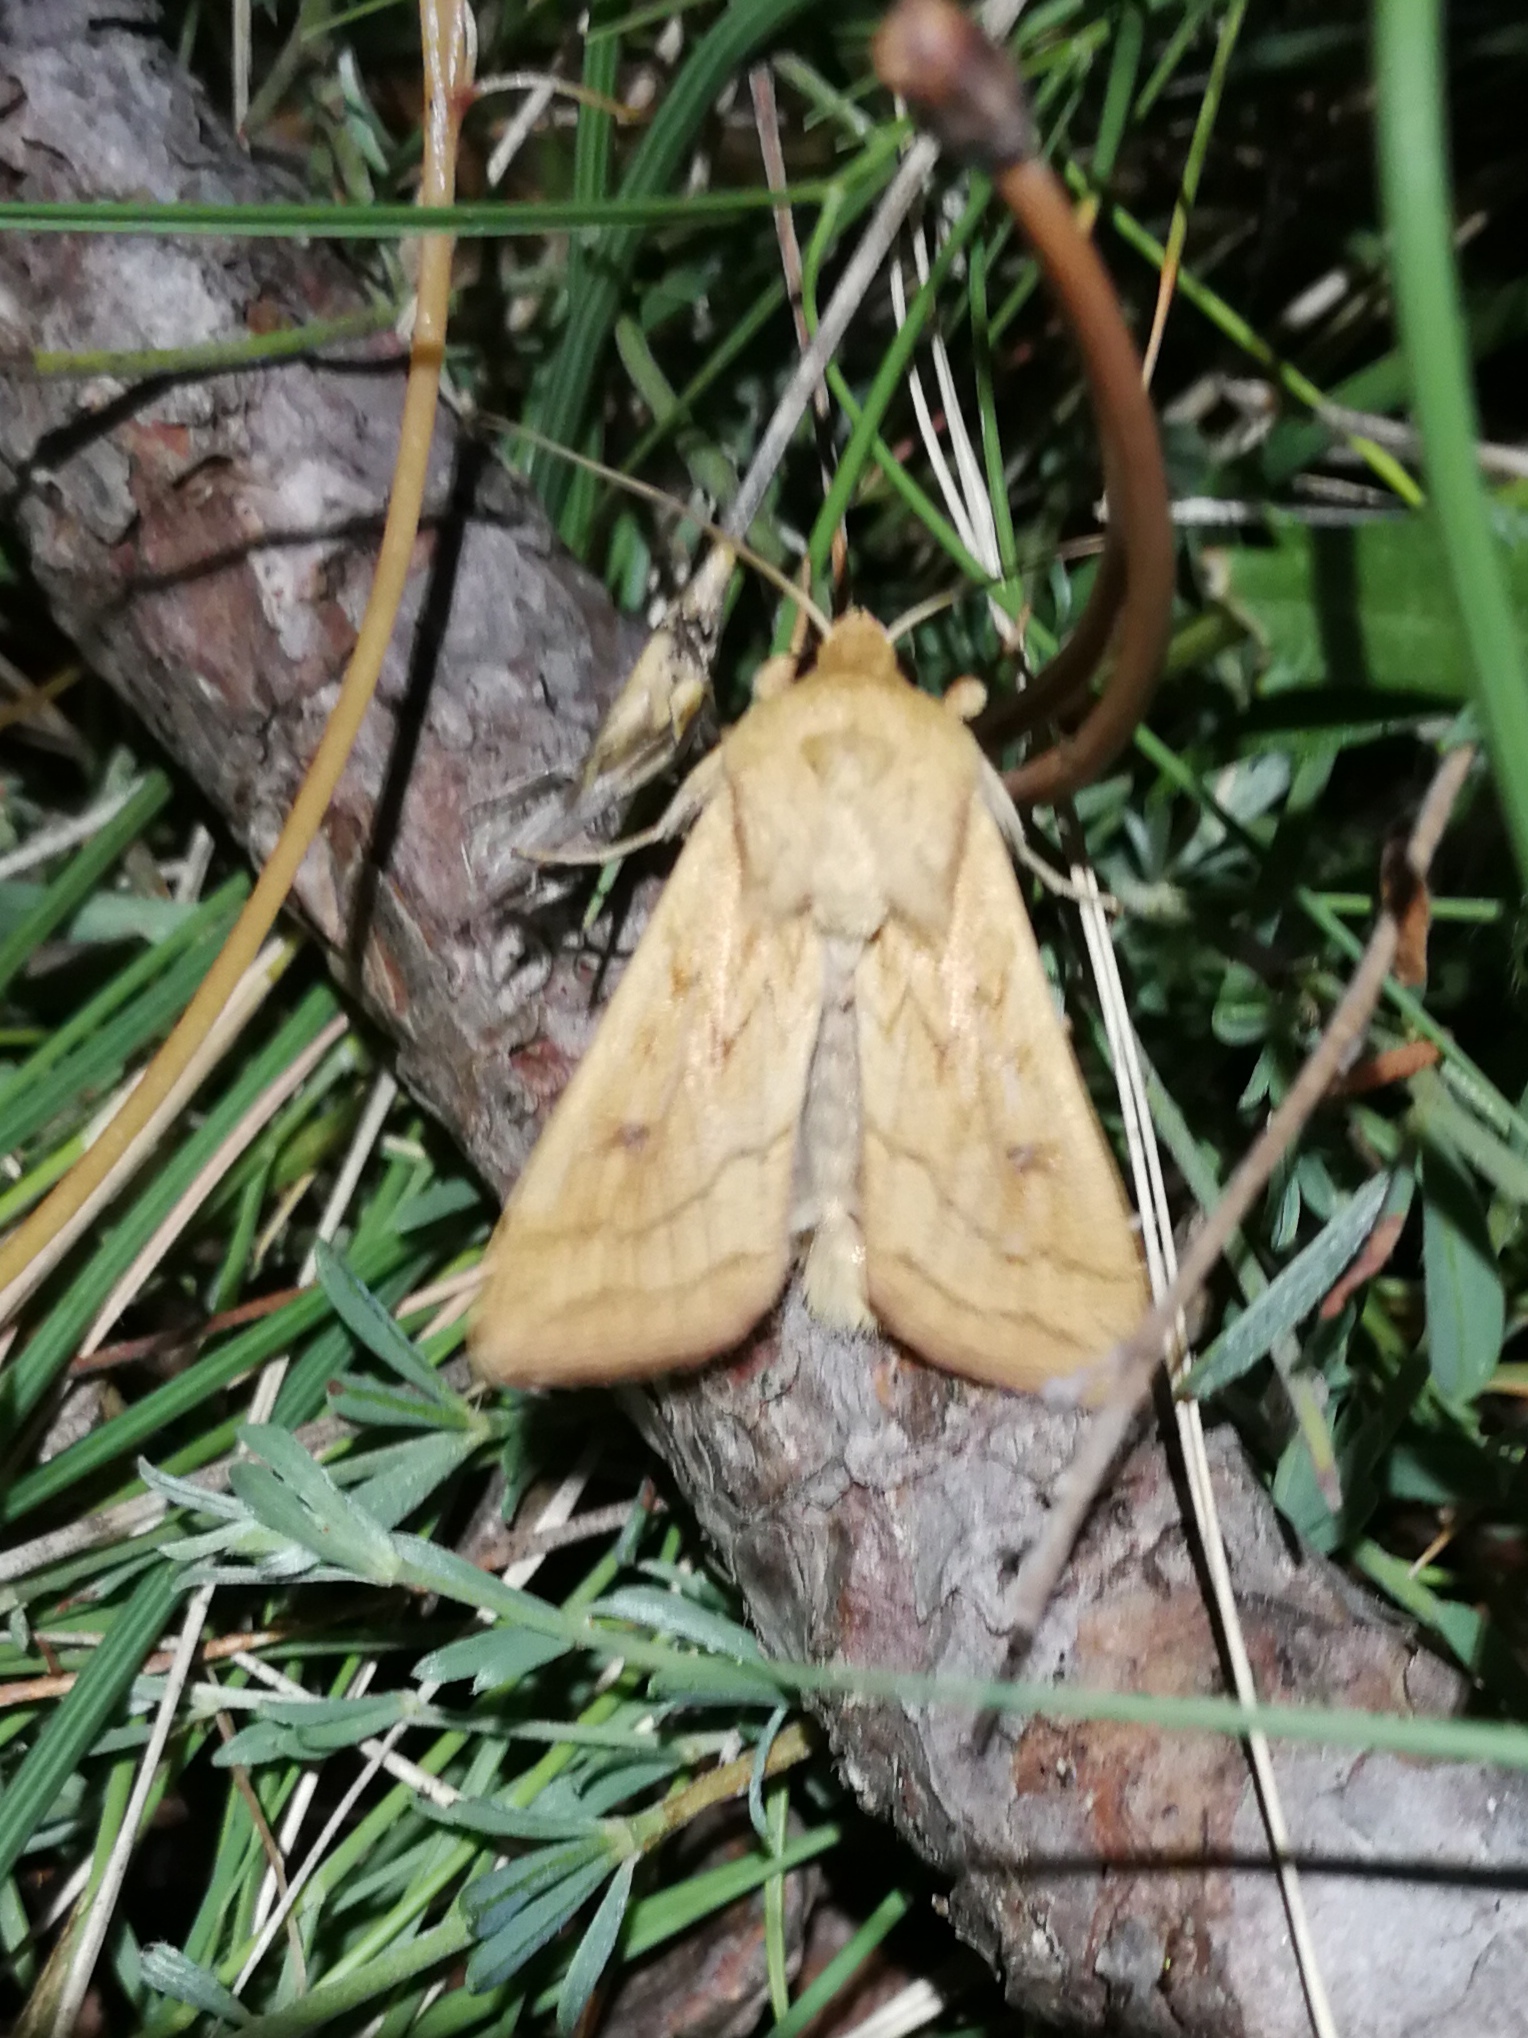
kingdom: Animalia
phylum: Arthropoda
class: Insecta
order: Lepidoptera
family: Noctuidae
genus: Mythimna
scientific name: Mythimna vitellina
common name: Delicate
